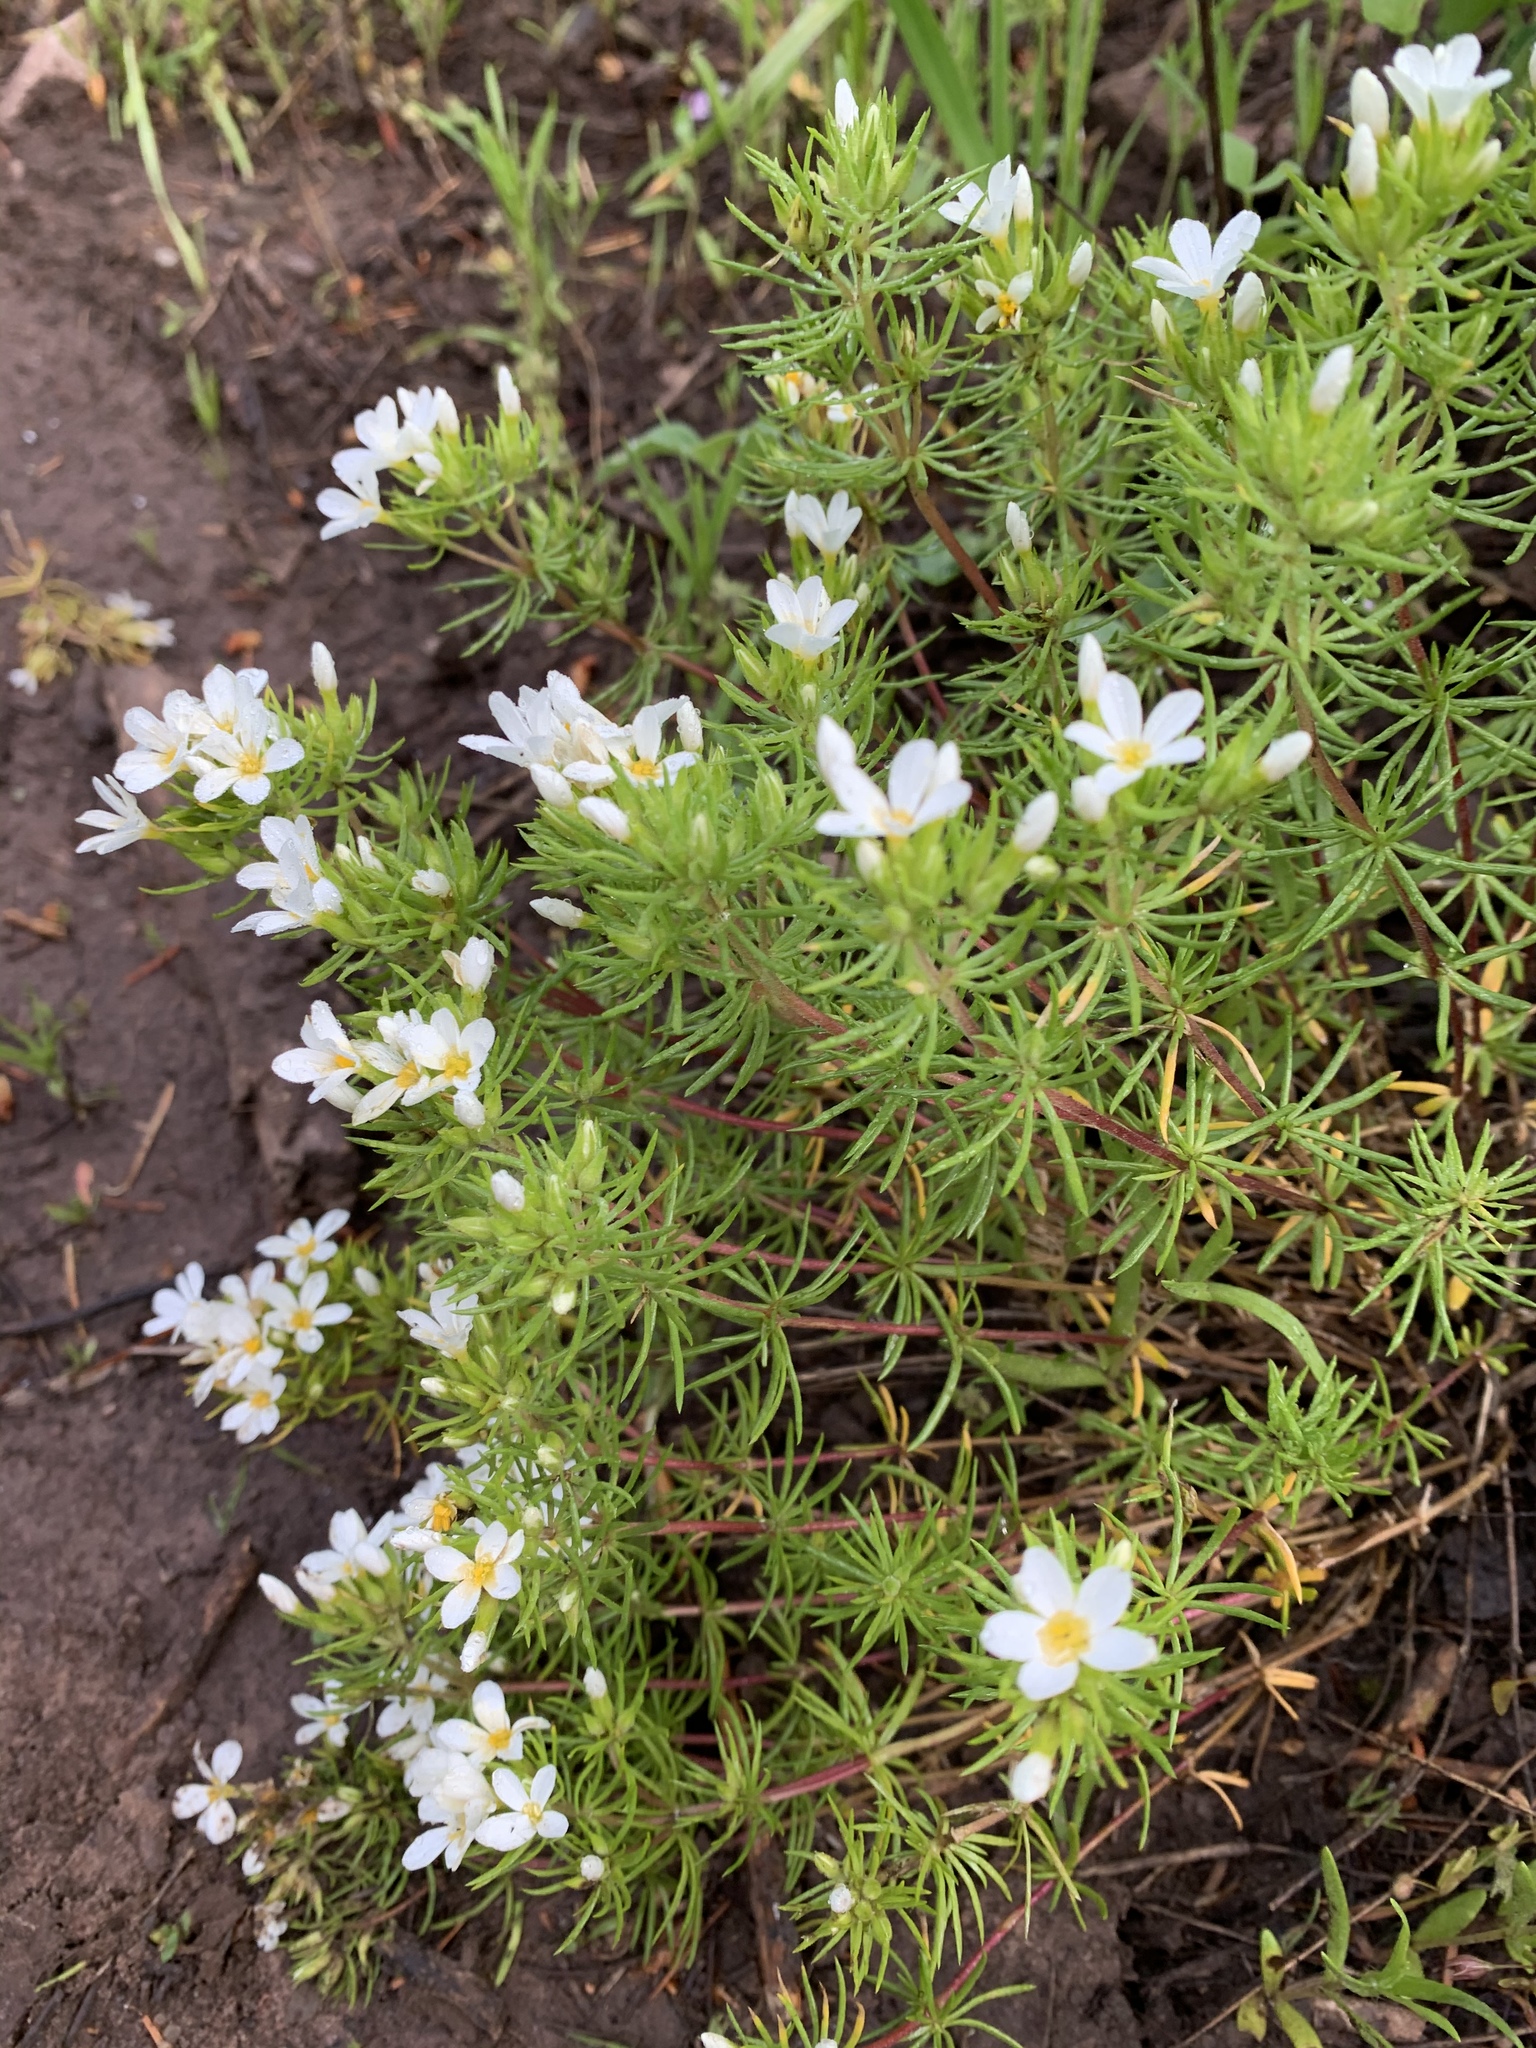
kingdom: Plantae
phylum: Tracheophyta
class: Magnoliopsida
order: Ericales
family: Polemoniaceae
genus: Leptosiphon
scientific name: Leptosiphon nuttallii
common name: Nuttall's linanthus
